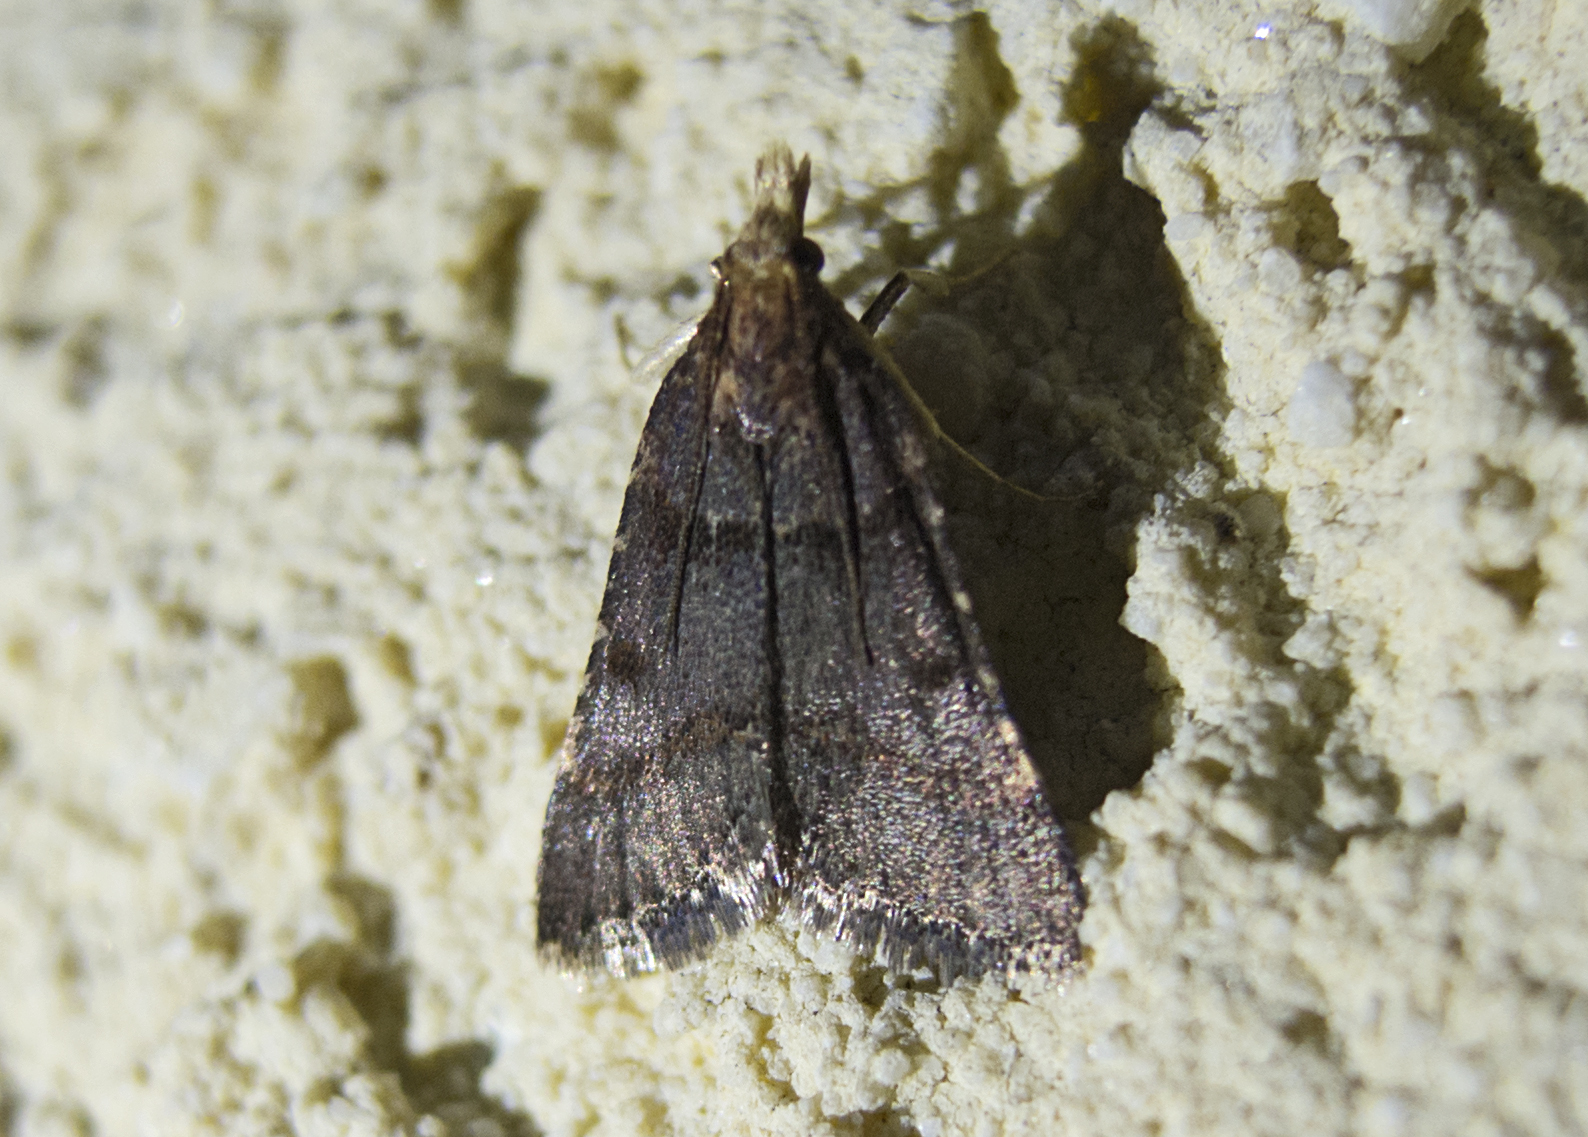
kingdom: Animalia
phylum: Arthropoda
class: Insecta
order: Lepidoptera
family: Pyralidae
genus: Stemmatophora
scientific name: Stemmatophora brunnealis
